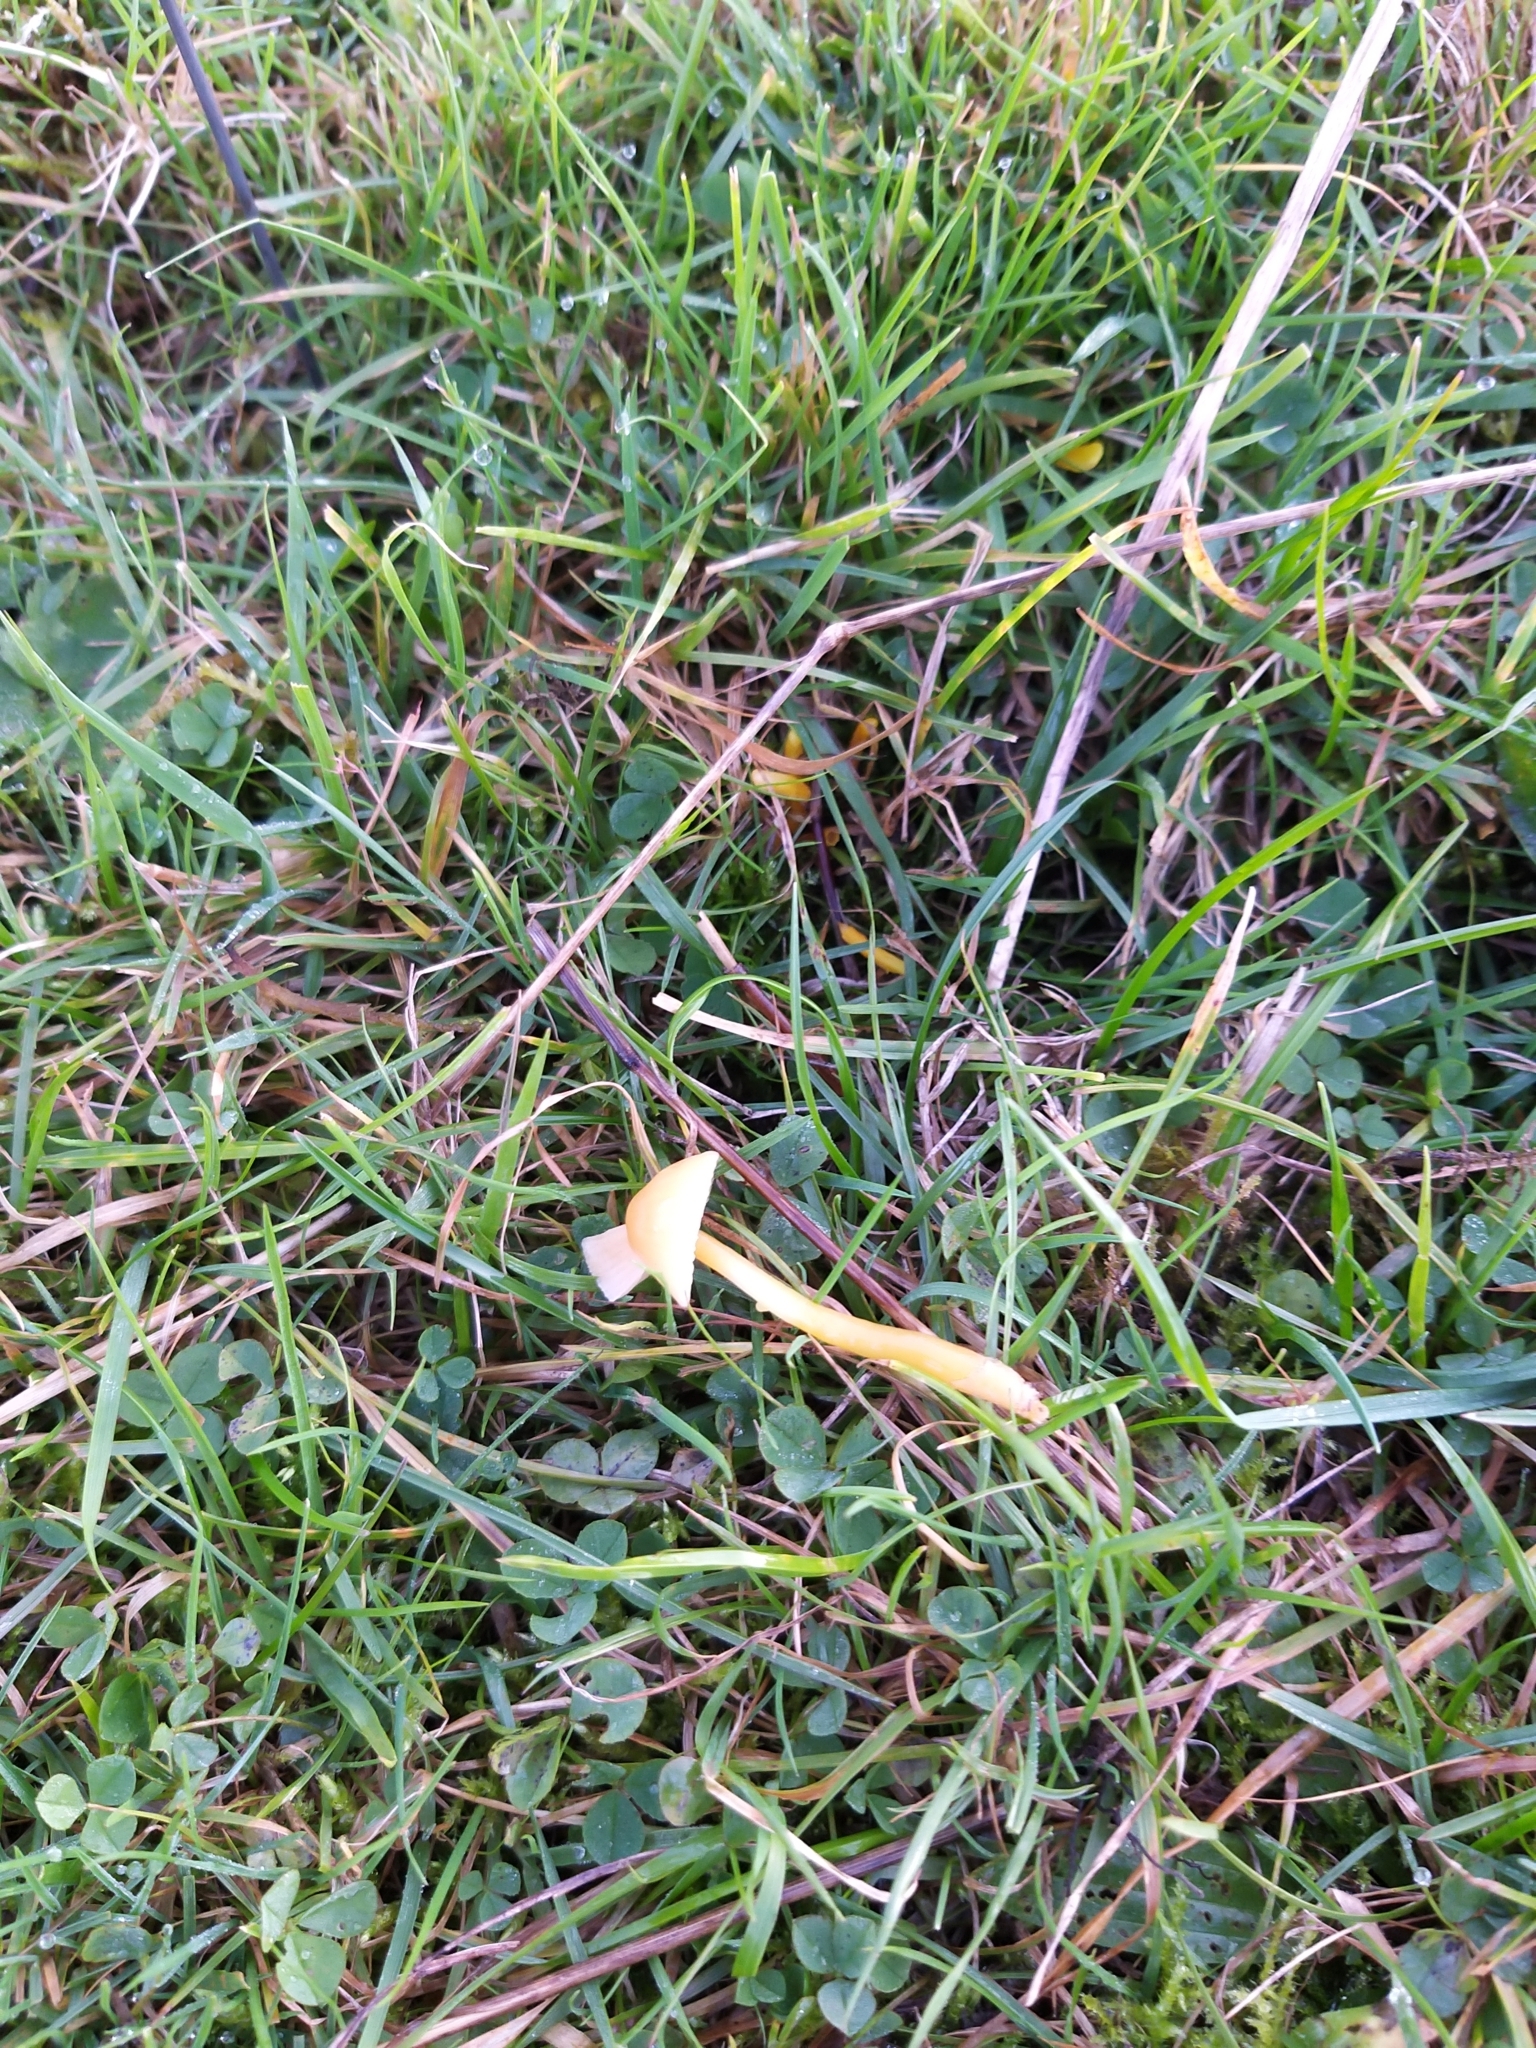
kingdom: Fungi
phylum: Basidiomycota
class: Agaricomycetes
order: Agaricales
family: Hygrophoraceae
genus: Gliophorus
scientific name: Gliophorus psittacinus
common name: Parrot wax-cap
